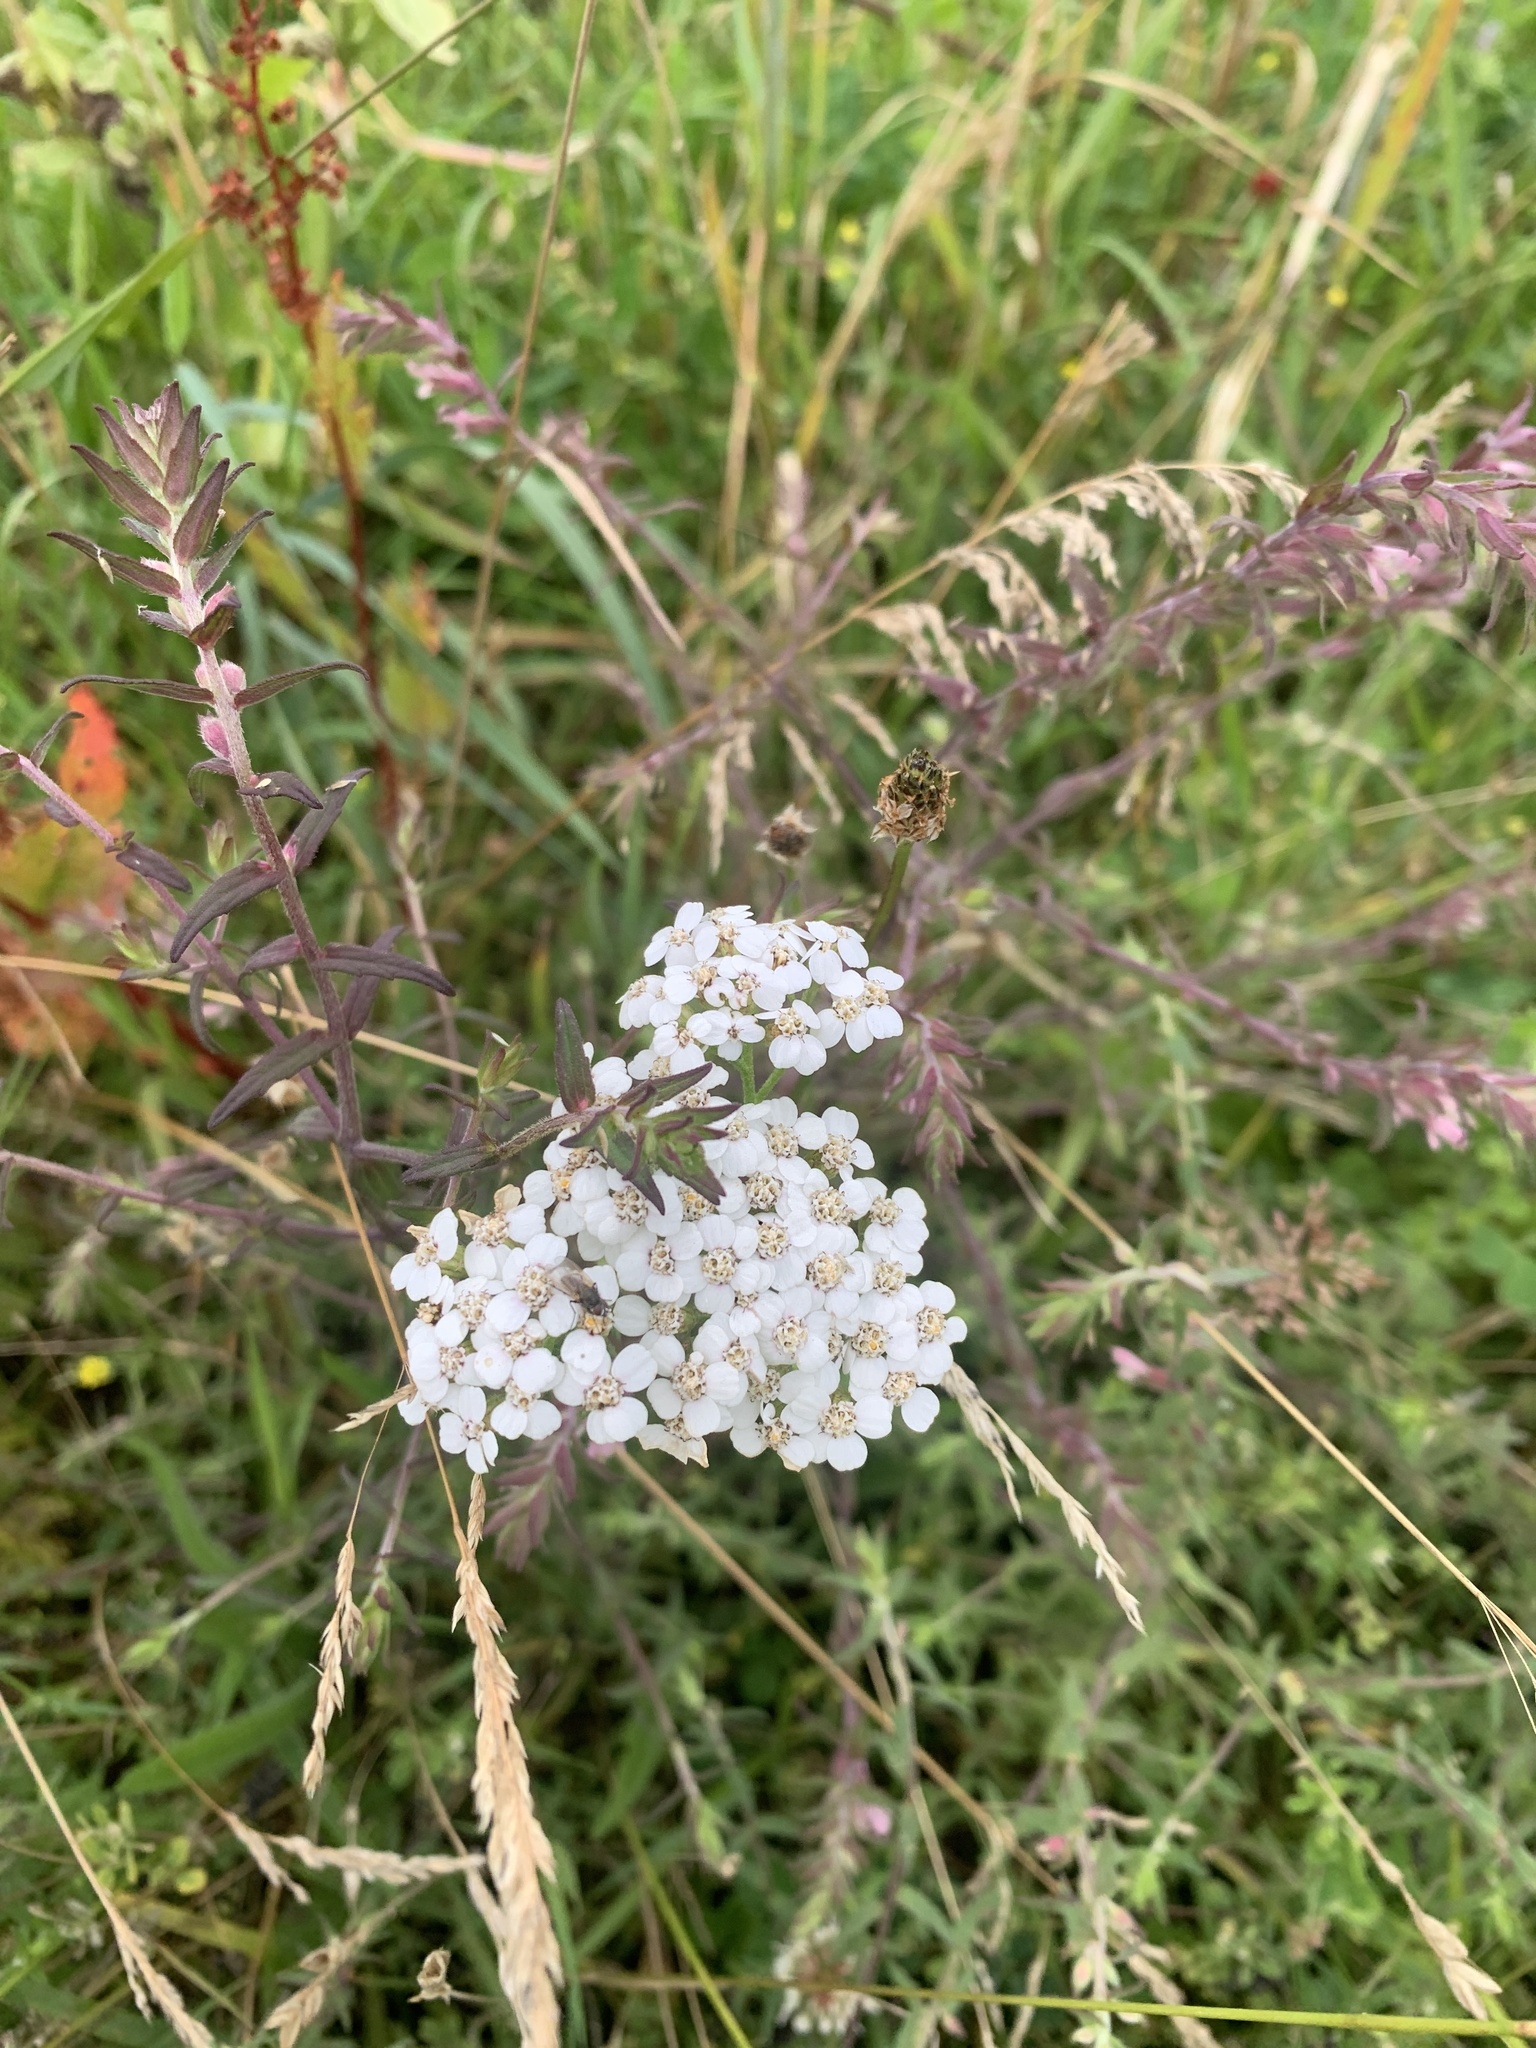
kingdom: Plantae
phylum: Tracheophyta
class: Magnoliopsida
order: Asterales
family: Asteraceae
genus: Achillea
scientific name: Achillea millefolium
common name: Yarrow
